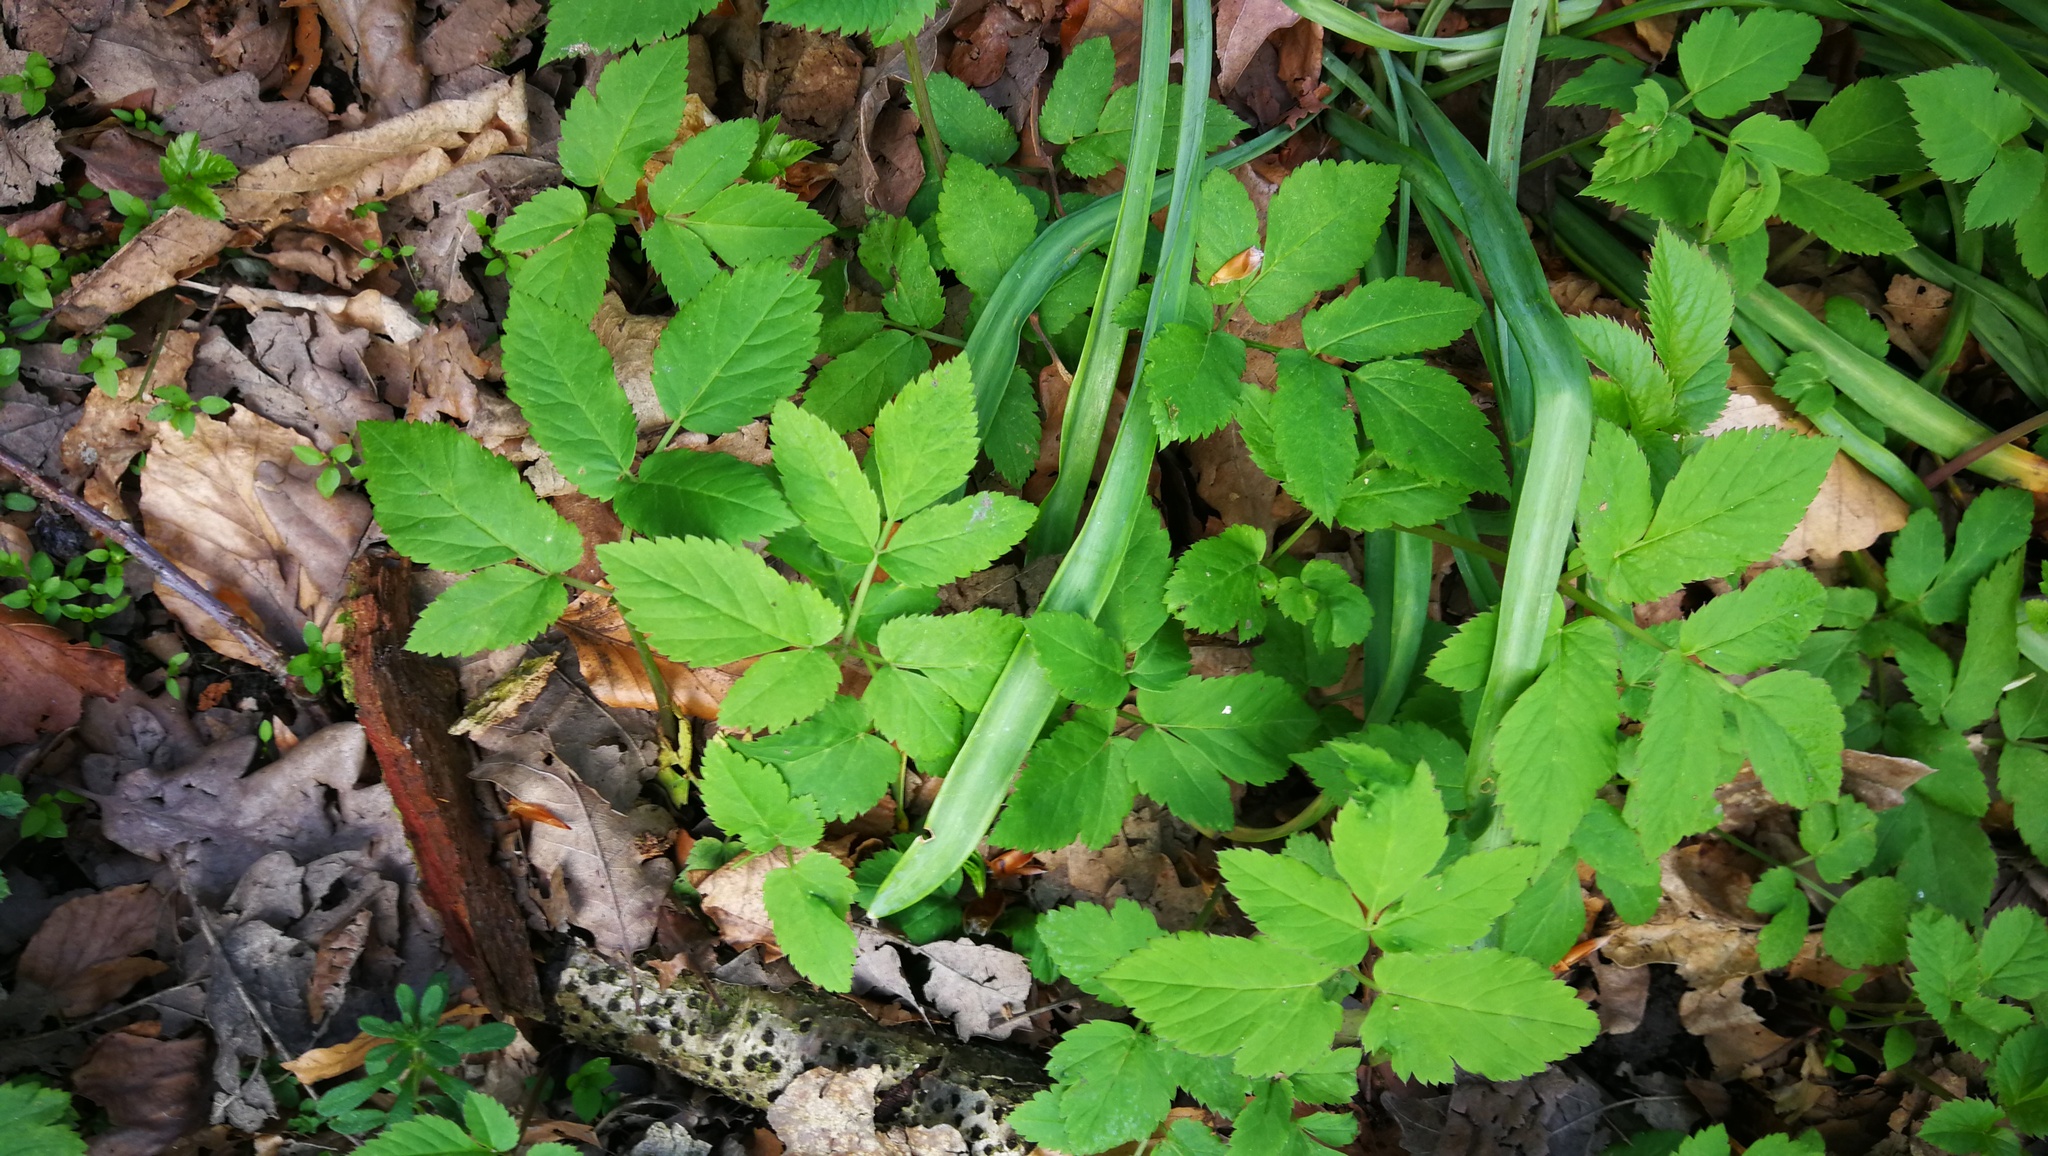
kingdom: Plantae
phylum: Tracheophyta
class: Magnoliopsida
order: Apiales
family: Apiaceae
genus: Aegopodium
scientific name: Aegopodium podagraria
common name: Ground-elder
